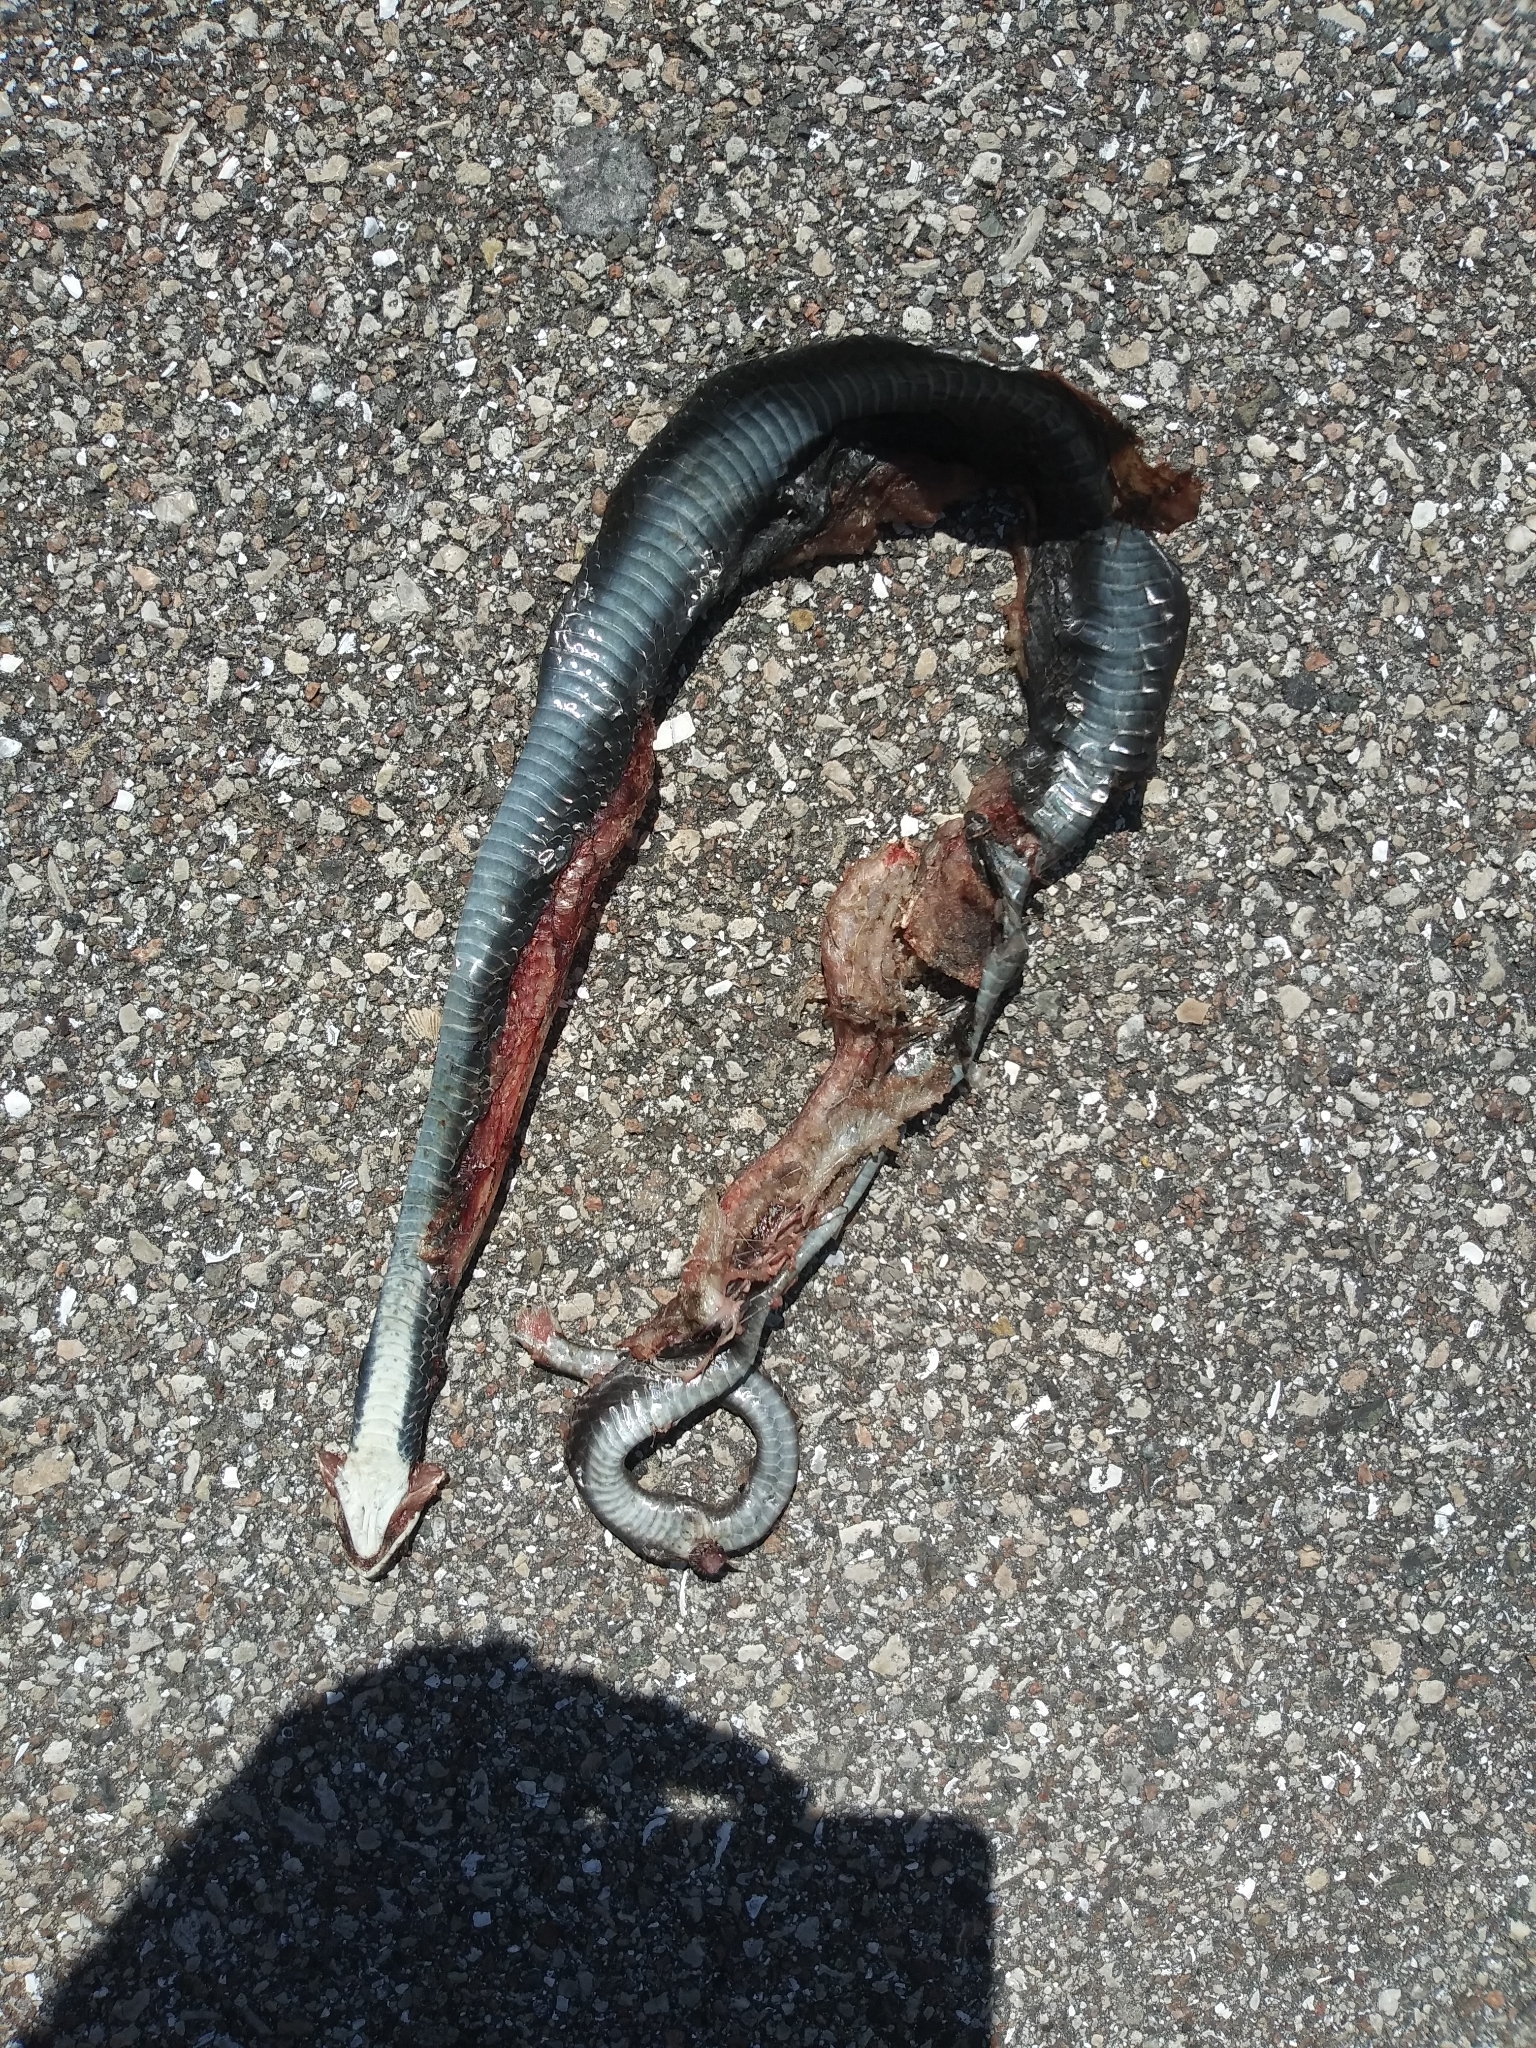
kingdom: Animalia
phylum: Chordata
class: Squamata
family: Colubridae
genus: Coluber
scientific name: Coluber constrictor
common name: Eastern racer
